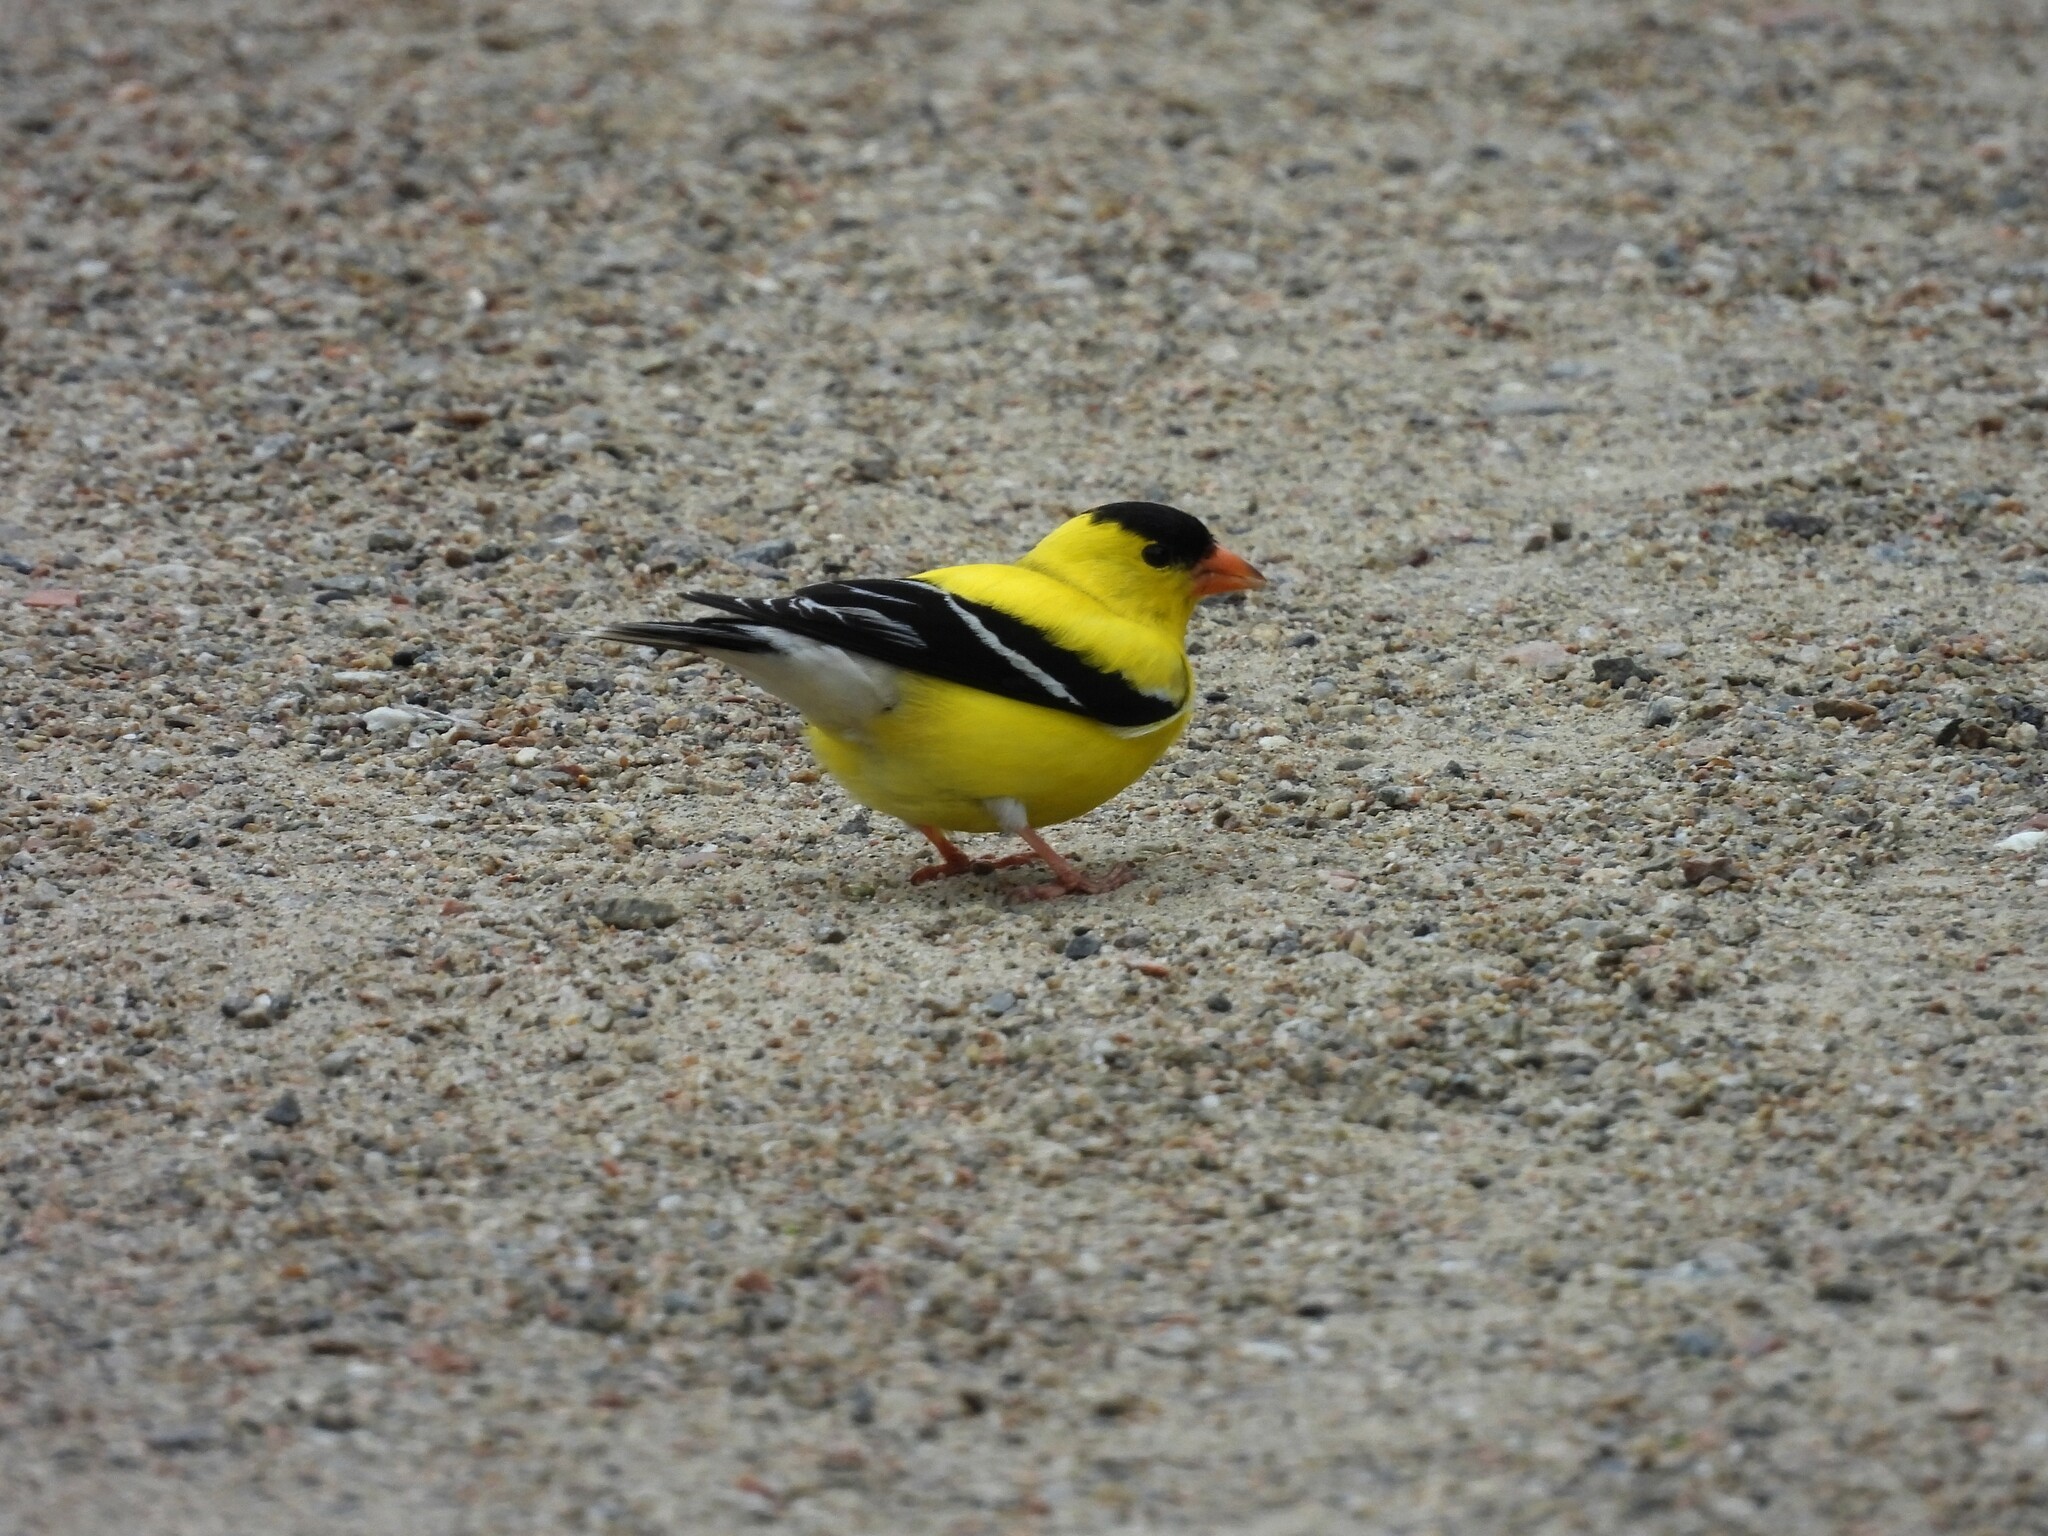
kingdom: Animalia
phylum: Chordata
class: Aves
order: Passeriformes
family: Fringillidae
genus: Spinus
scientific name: Spinus tristis
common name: American goldfinch
